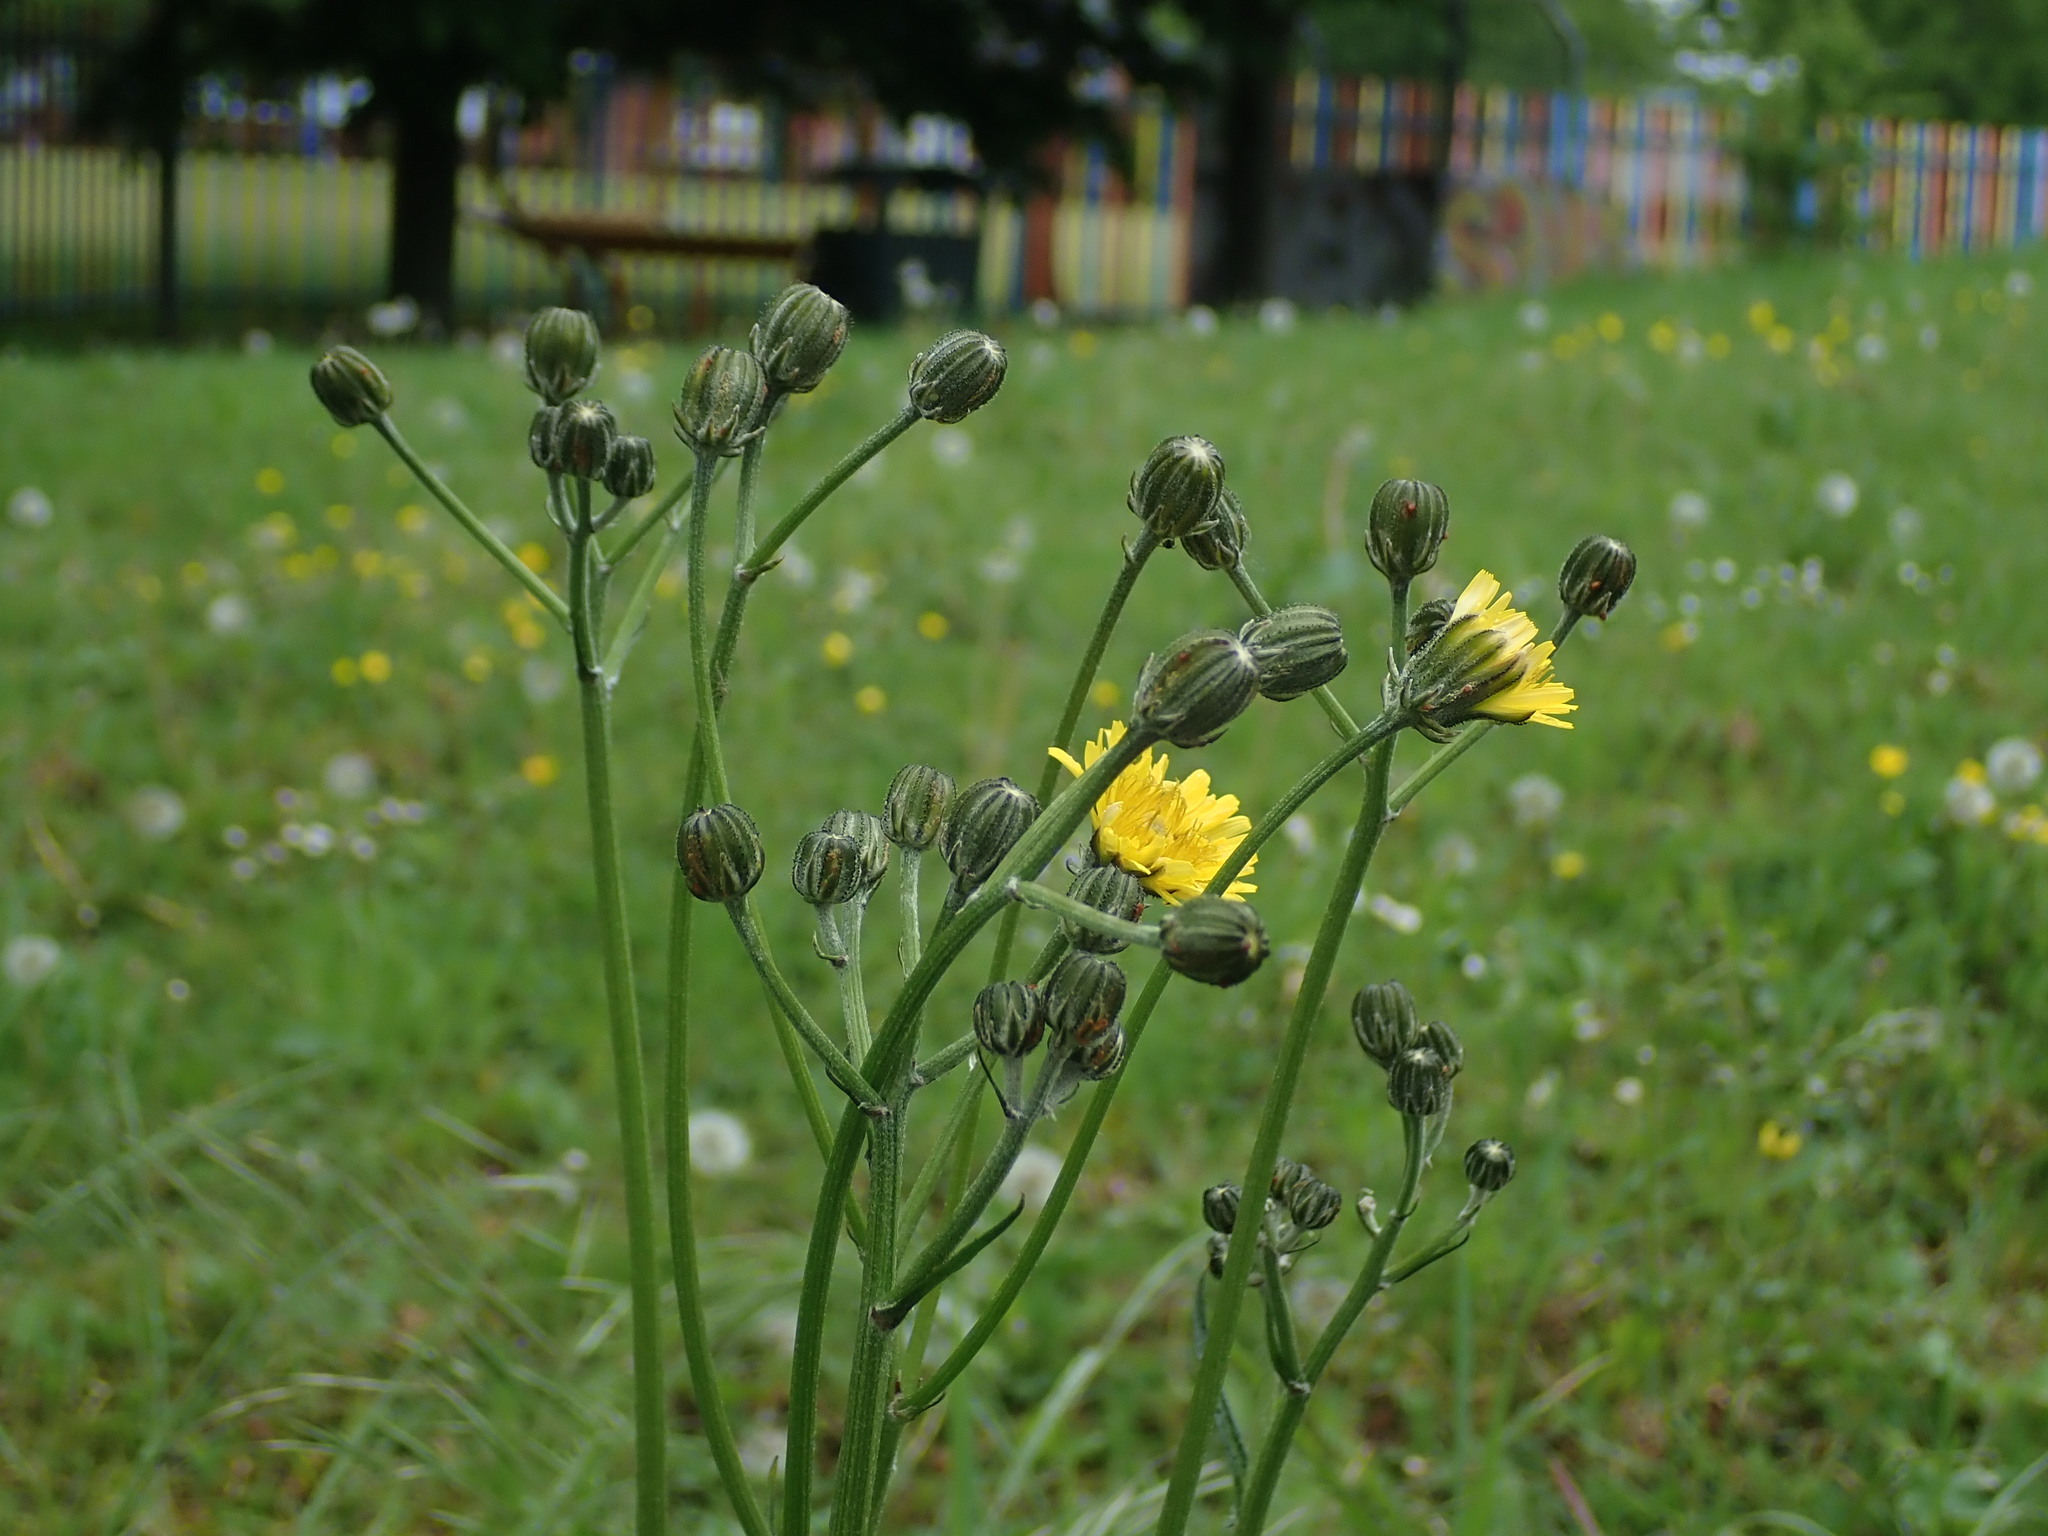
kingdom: Plantae
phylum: Tracheophyta
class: Magnoliopsida
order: Asterales
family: Asteraceae
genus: Crepis
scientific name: Crepis vesicaria
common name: Beaked hawksbeard
